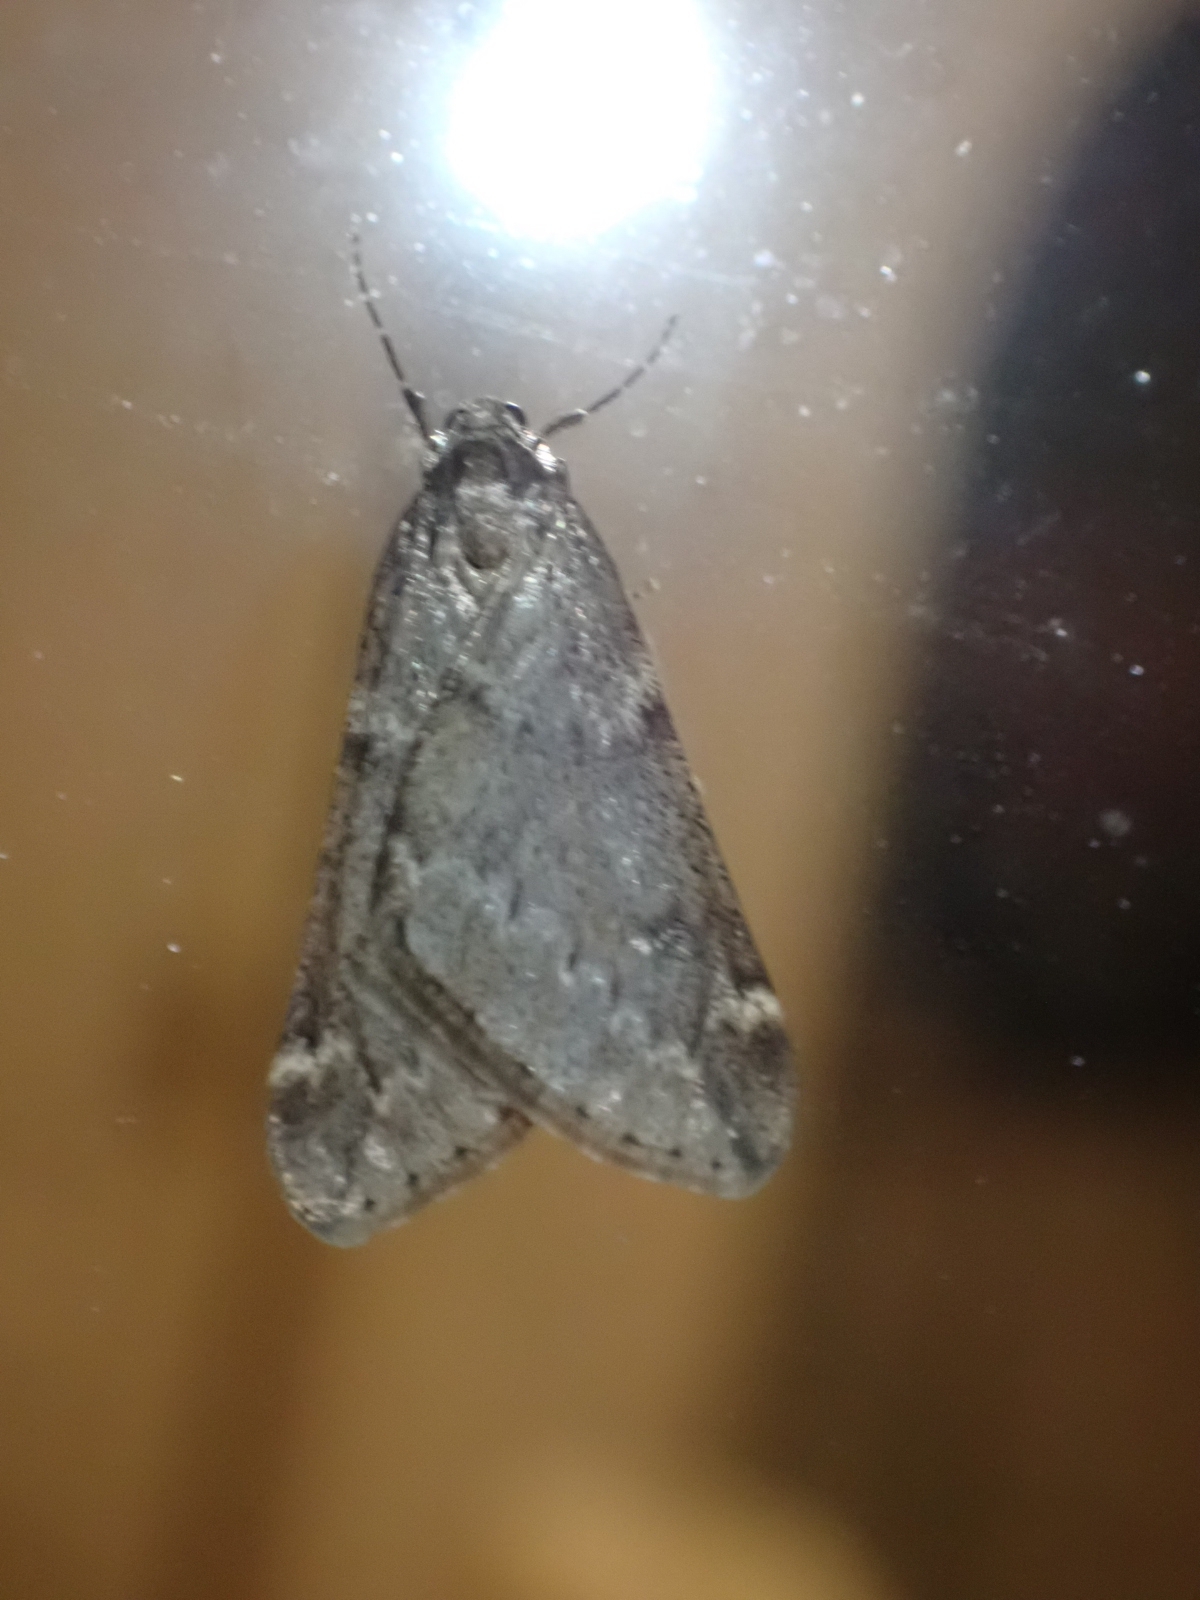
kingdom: Animalia
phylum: Arthropoda
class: Insecta
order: Lepidoptera
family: Geometridae
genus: Alsophila
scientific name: Alsophila aescularia
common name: March moth
